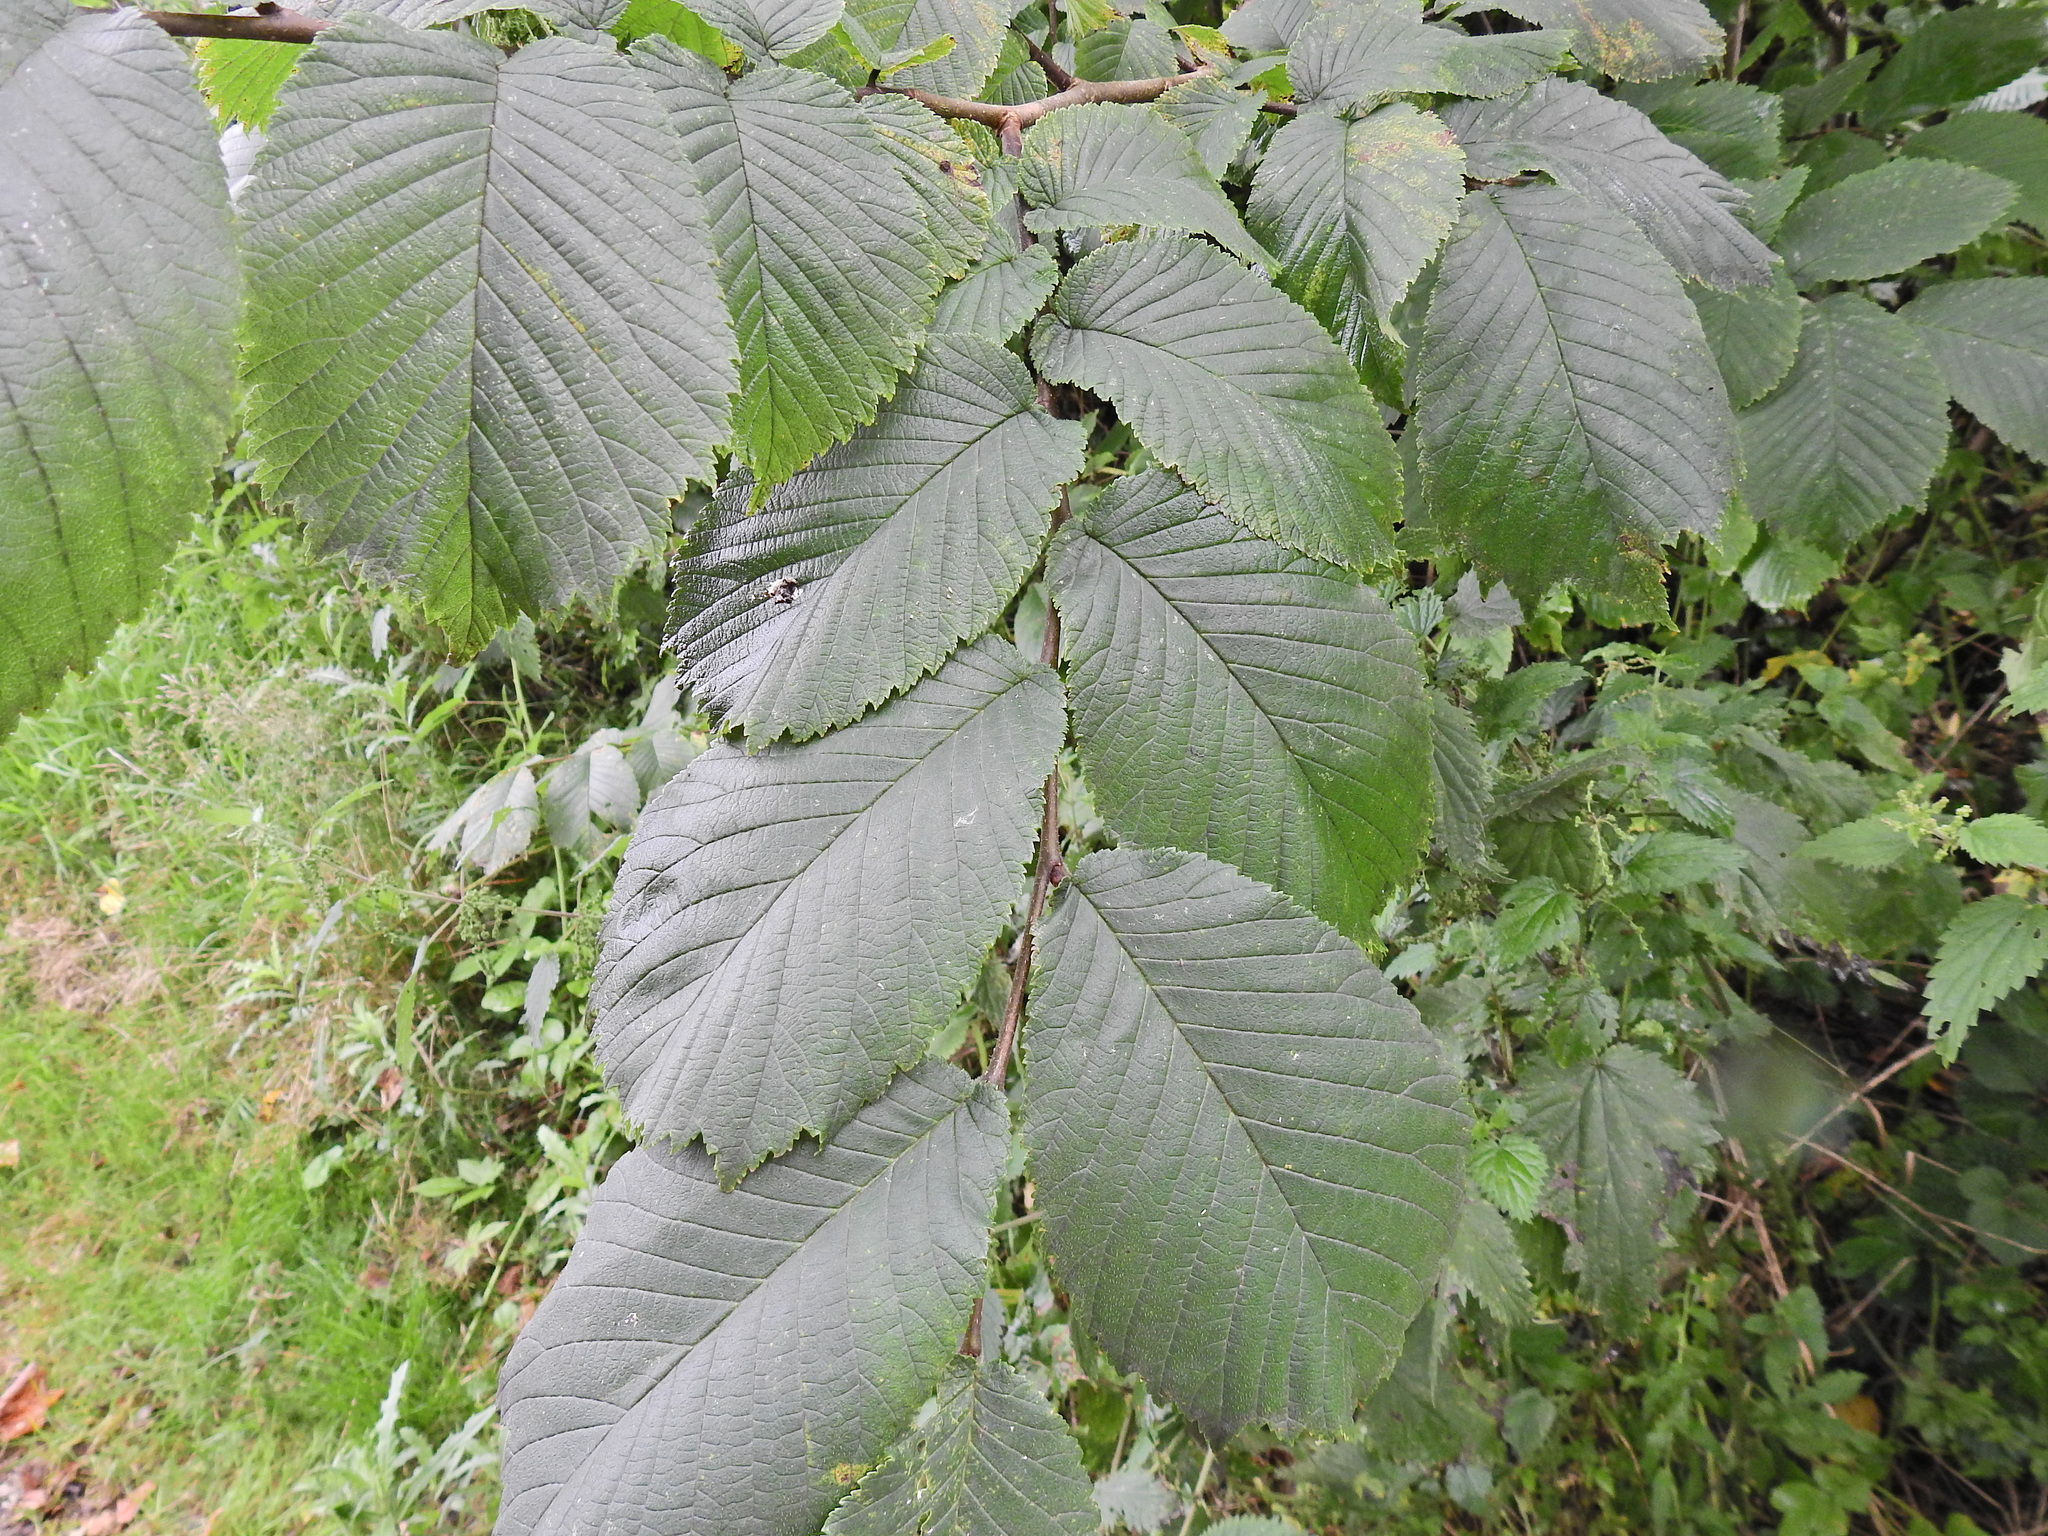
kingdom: Plantae
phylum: Tracheophyta
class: Magnoliopsida
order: Rosales
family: Ulmaceae
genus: Ulmus
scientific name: Ulmus glabra
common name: Wych elm
